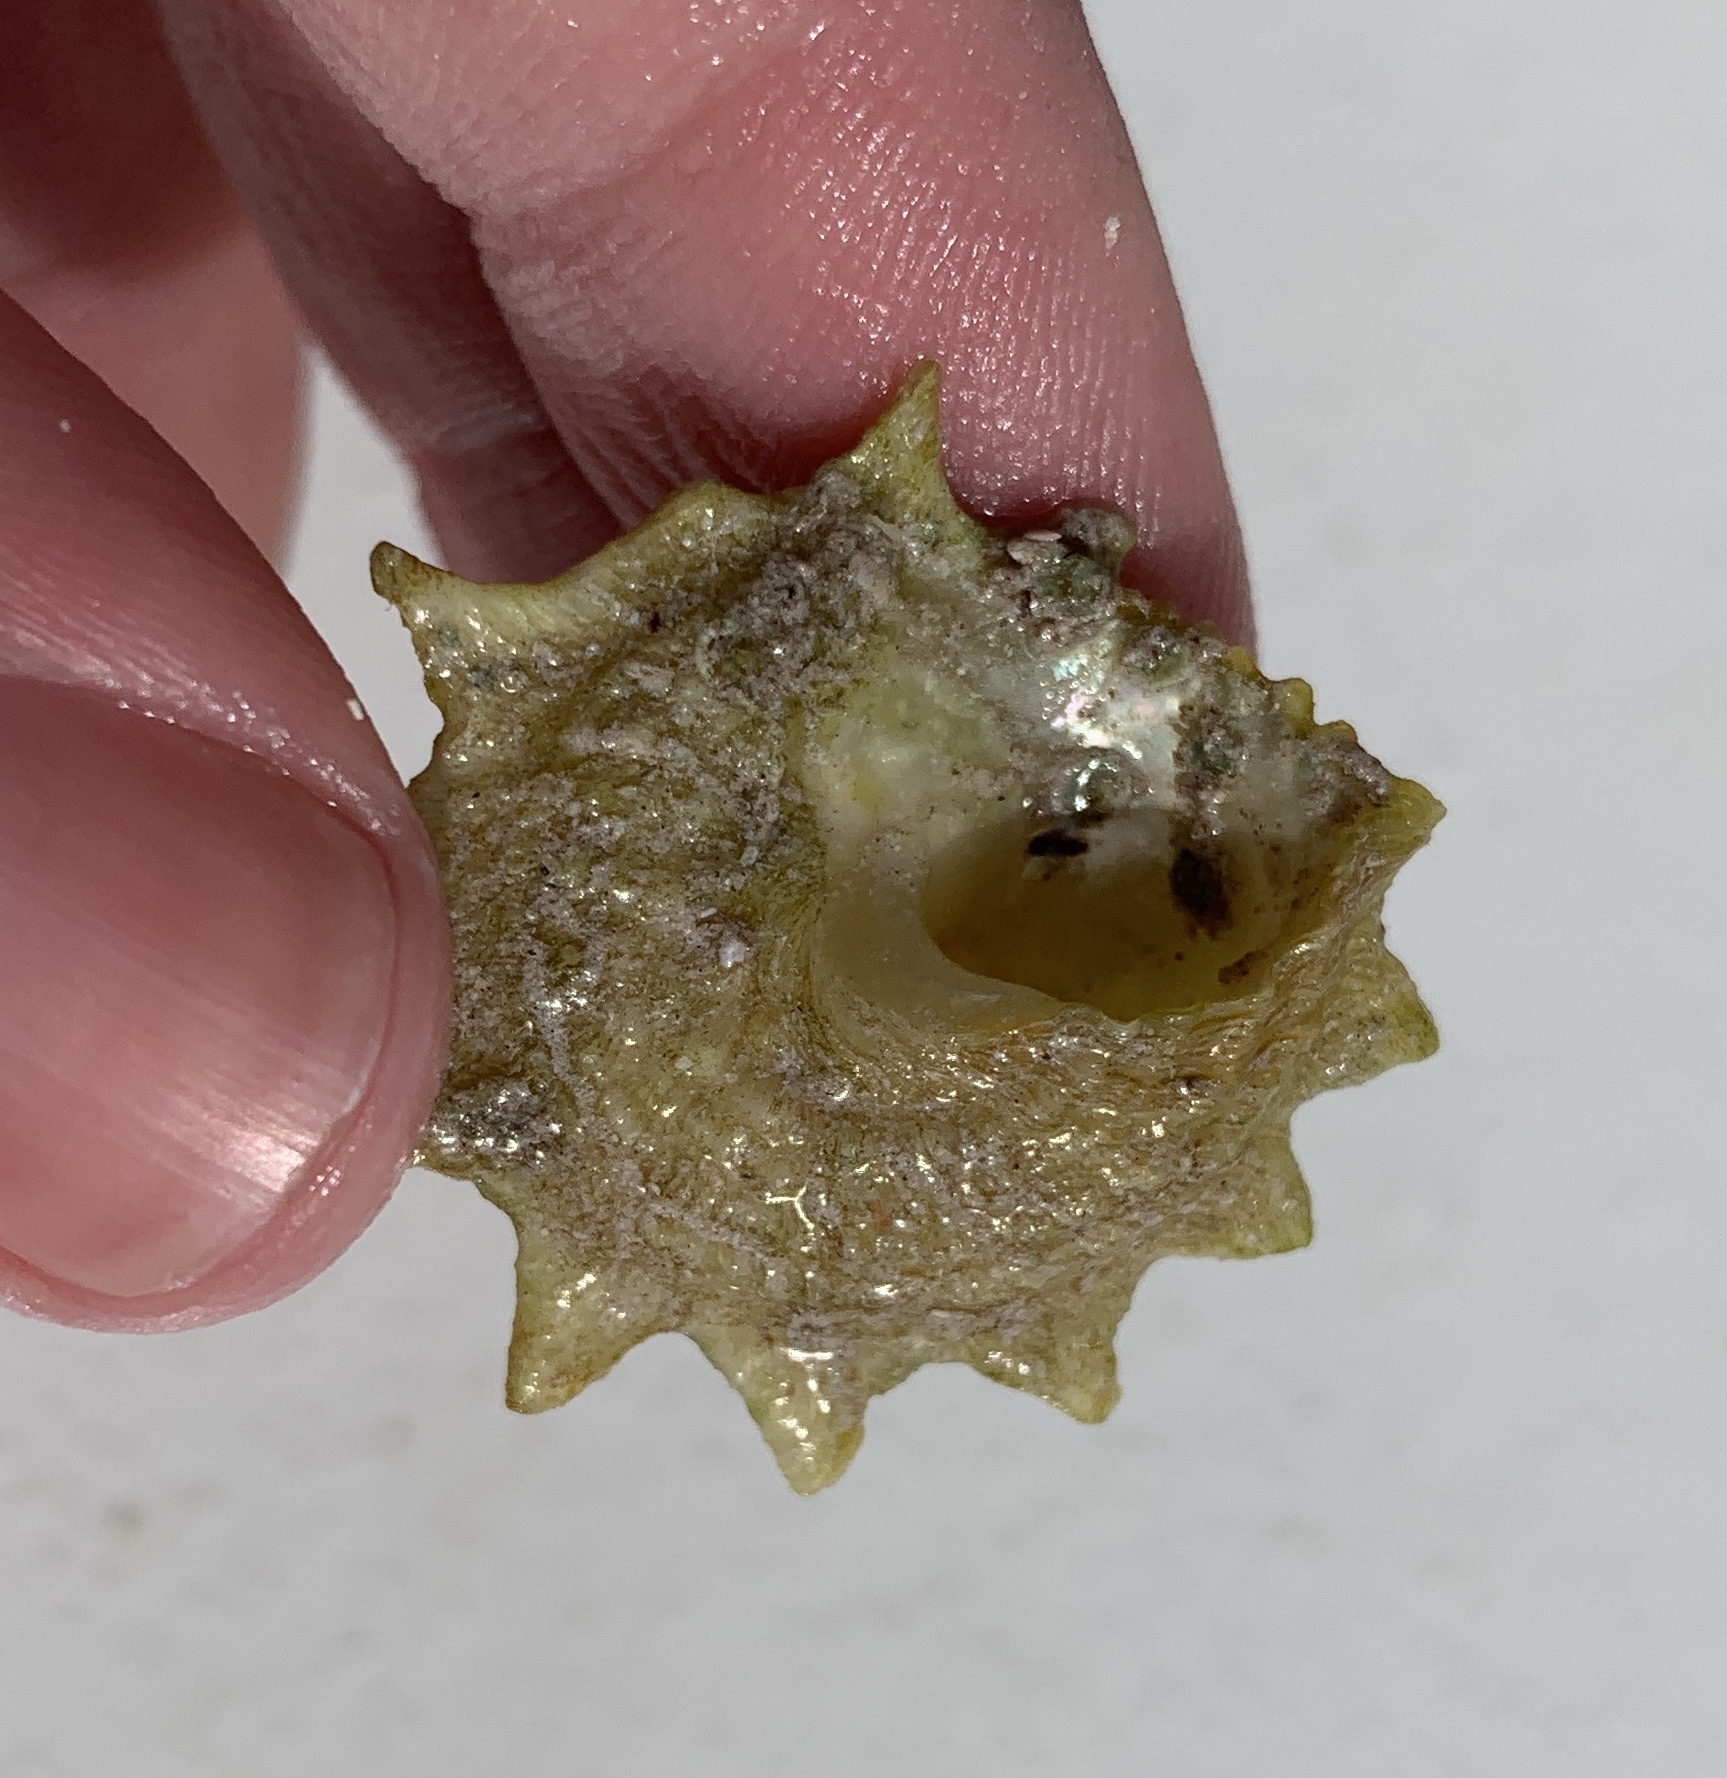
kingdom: Animalia
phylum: Mollusca
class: Gastropoda
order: Trochida
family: Turbinidae
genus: Lithopoma
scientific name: Lithopoma phoebium
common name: Long-spined starsnail
